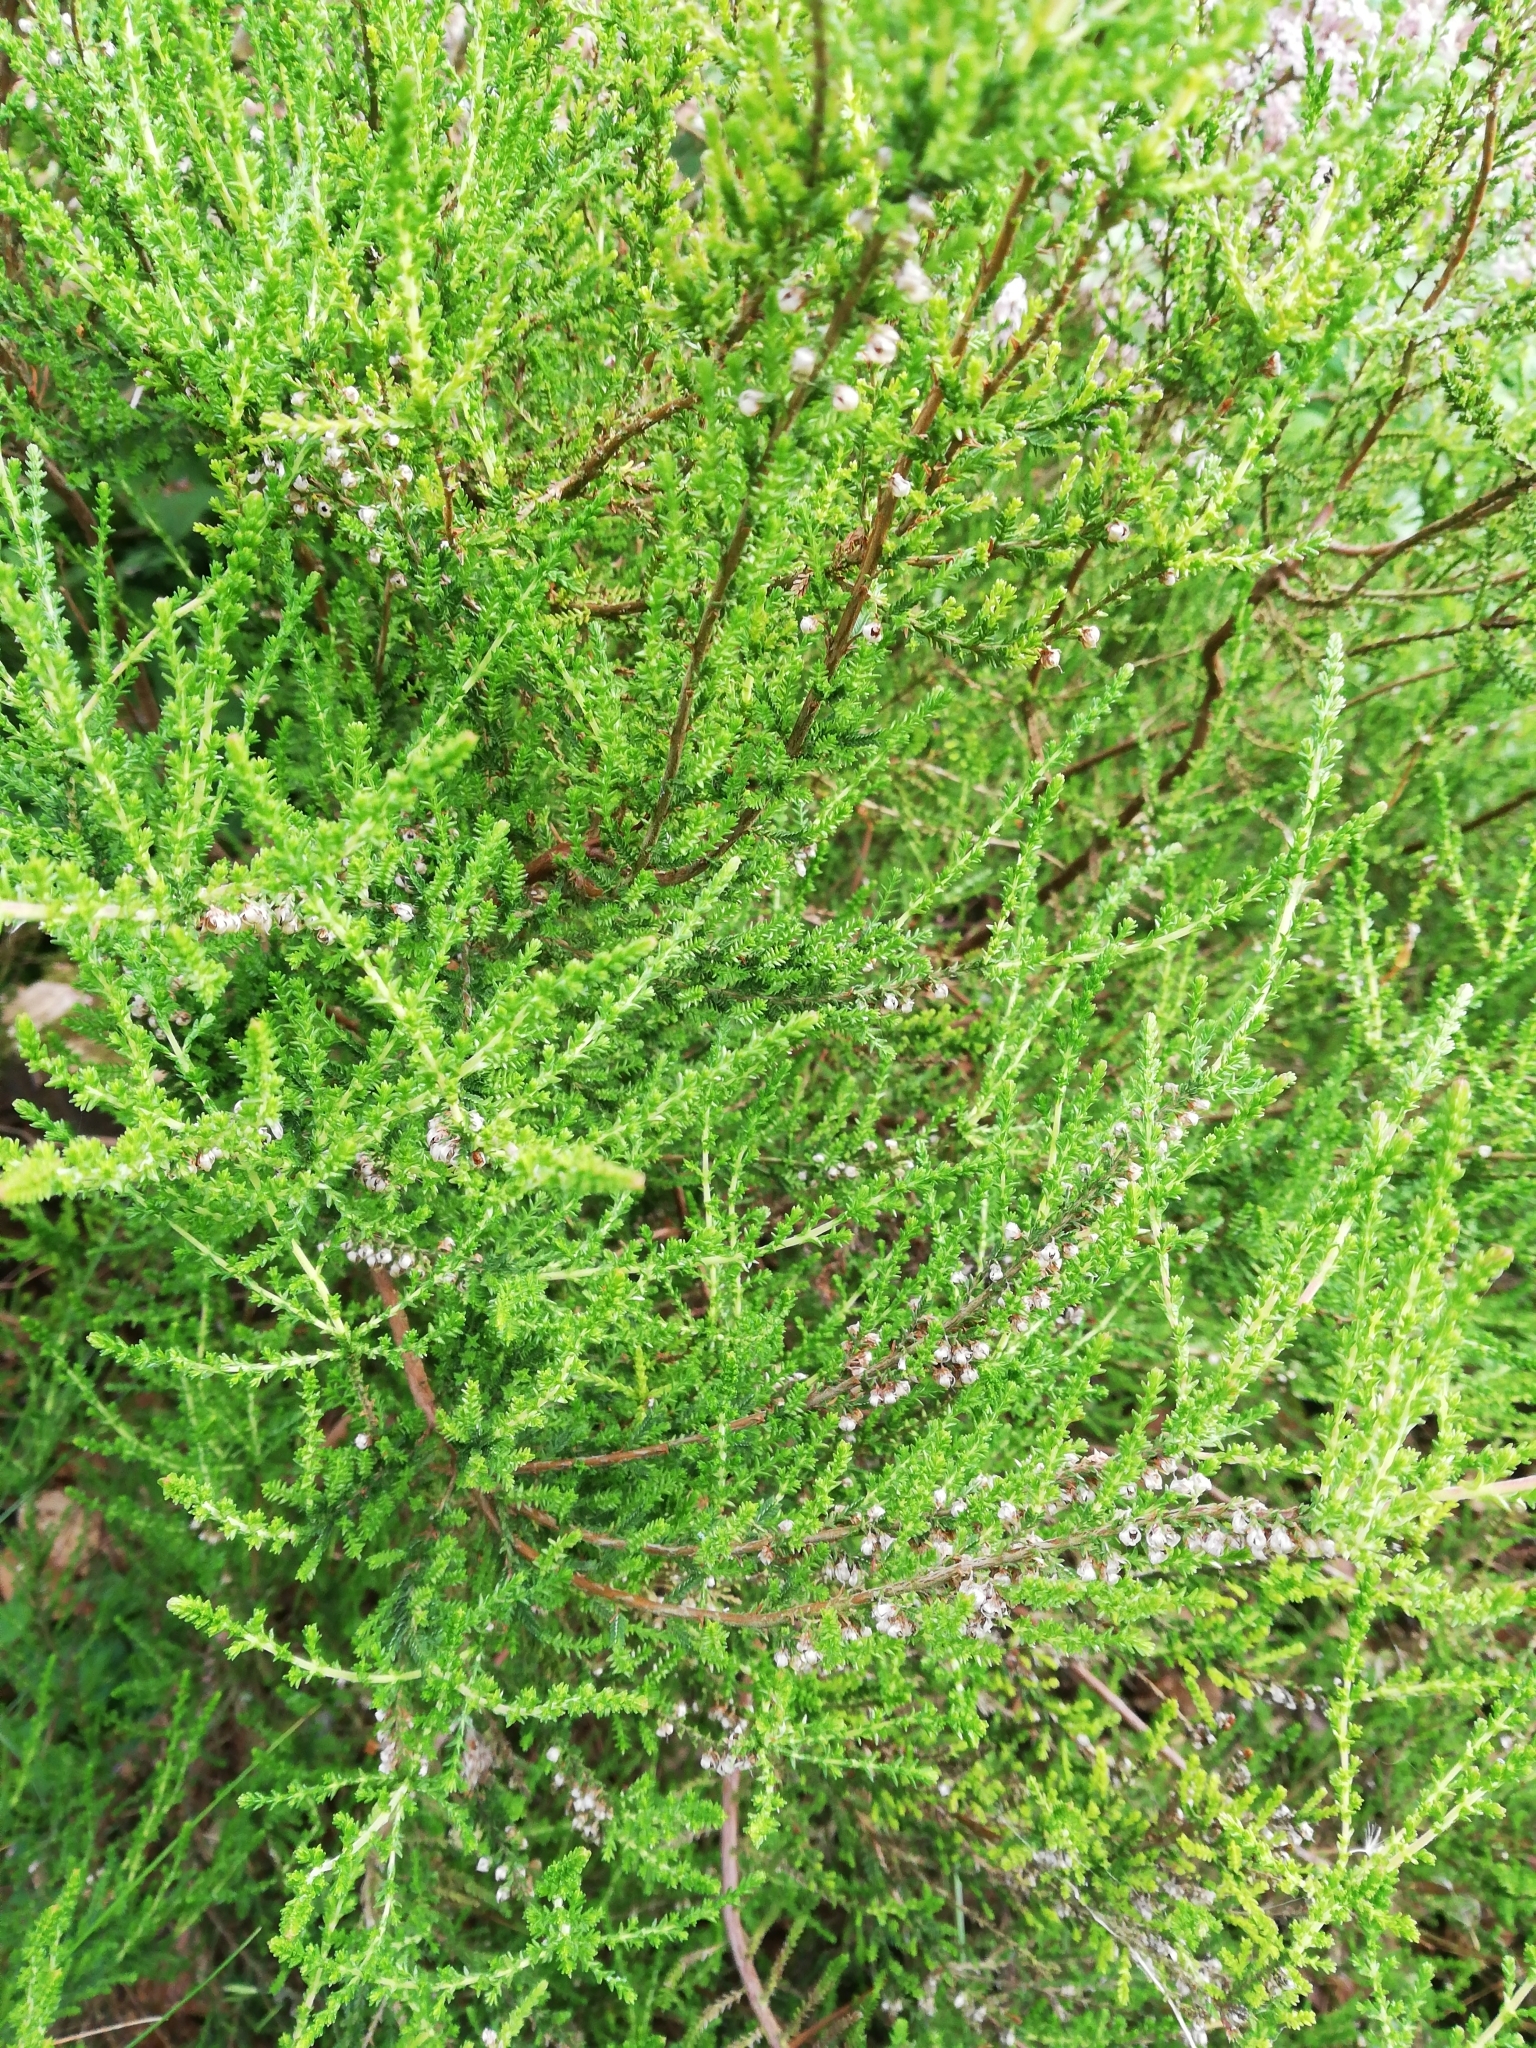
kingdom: Plantae
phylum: Tracheophyta
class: Magnoliopsida
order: Ericales
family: Ericaceae
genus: Calluna
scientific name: Calluna vulgaris
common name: Heather
